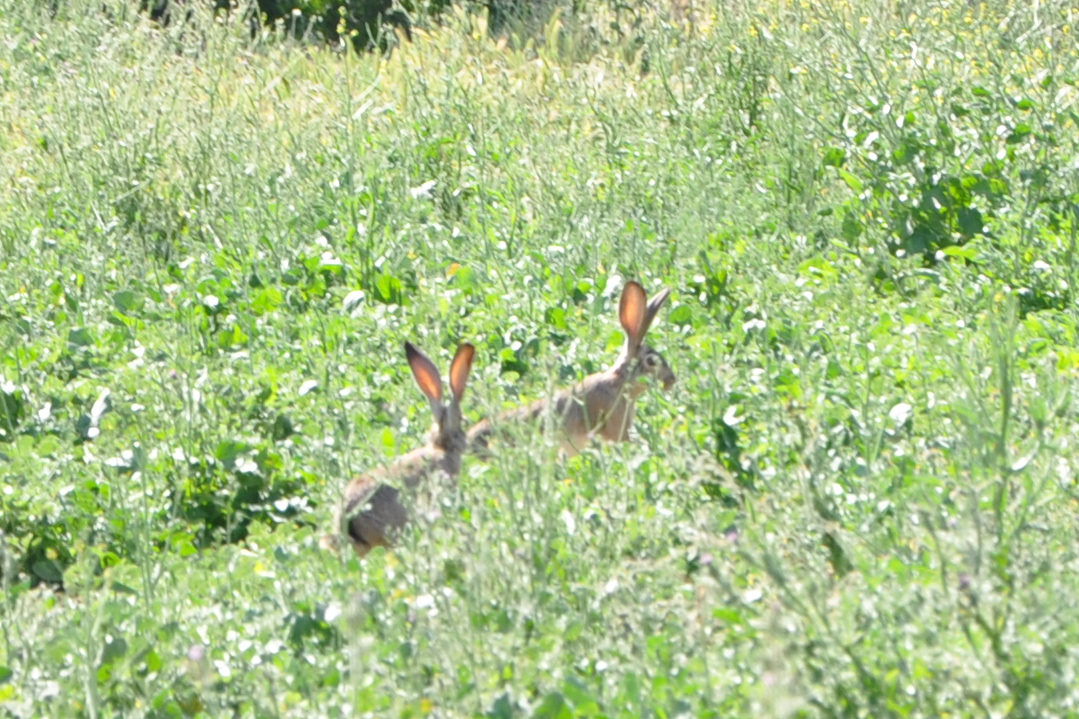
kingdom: Animalia
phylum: Chordata
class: Mammalia
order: Lagomorpha
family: Leporidae
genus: Lepus
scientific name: Lepus californicus
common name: Black-tailed jackrabbit
